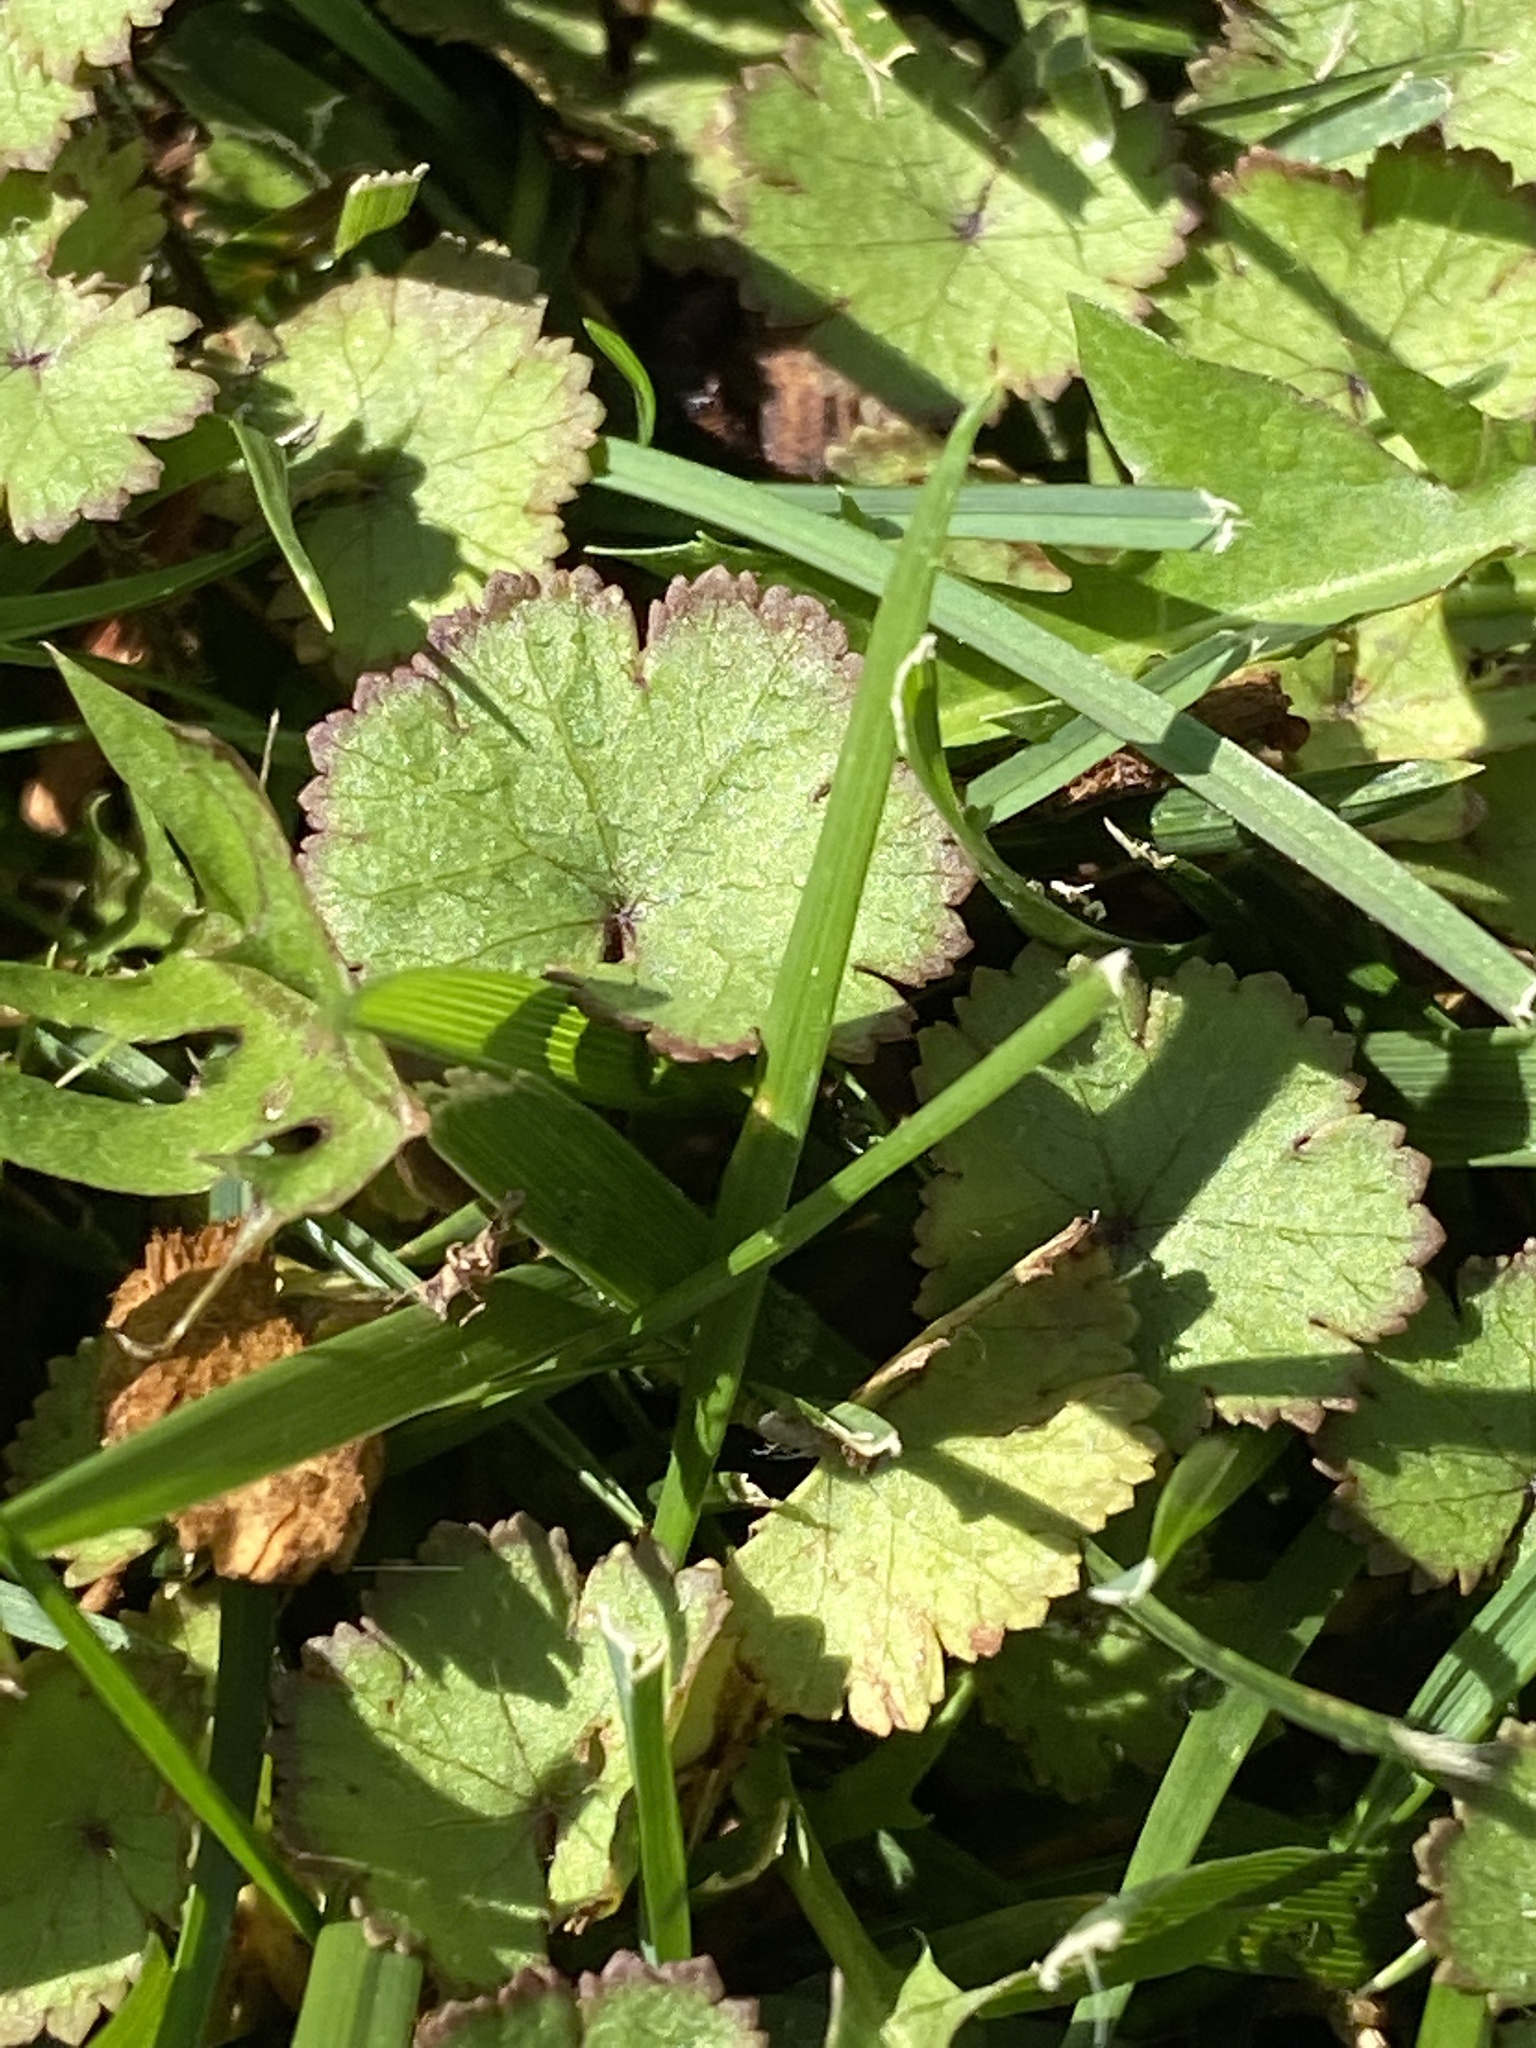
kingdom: Plantae
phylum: Tracheophyta
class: Magnoliopsida
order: Apiales
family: Araliaceae
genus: Hydrocotyle
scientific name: Hydrocotyle moschata
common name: Hairy pennywort
